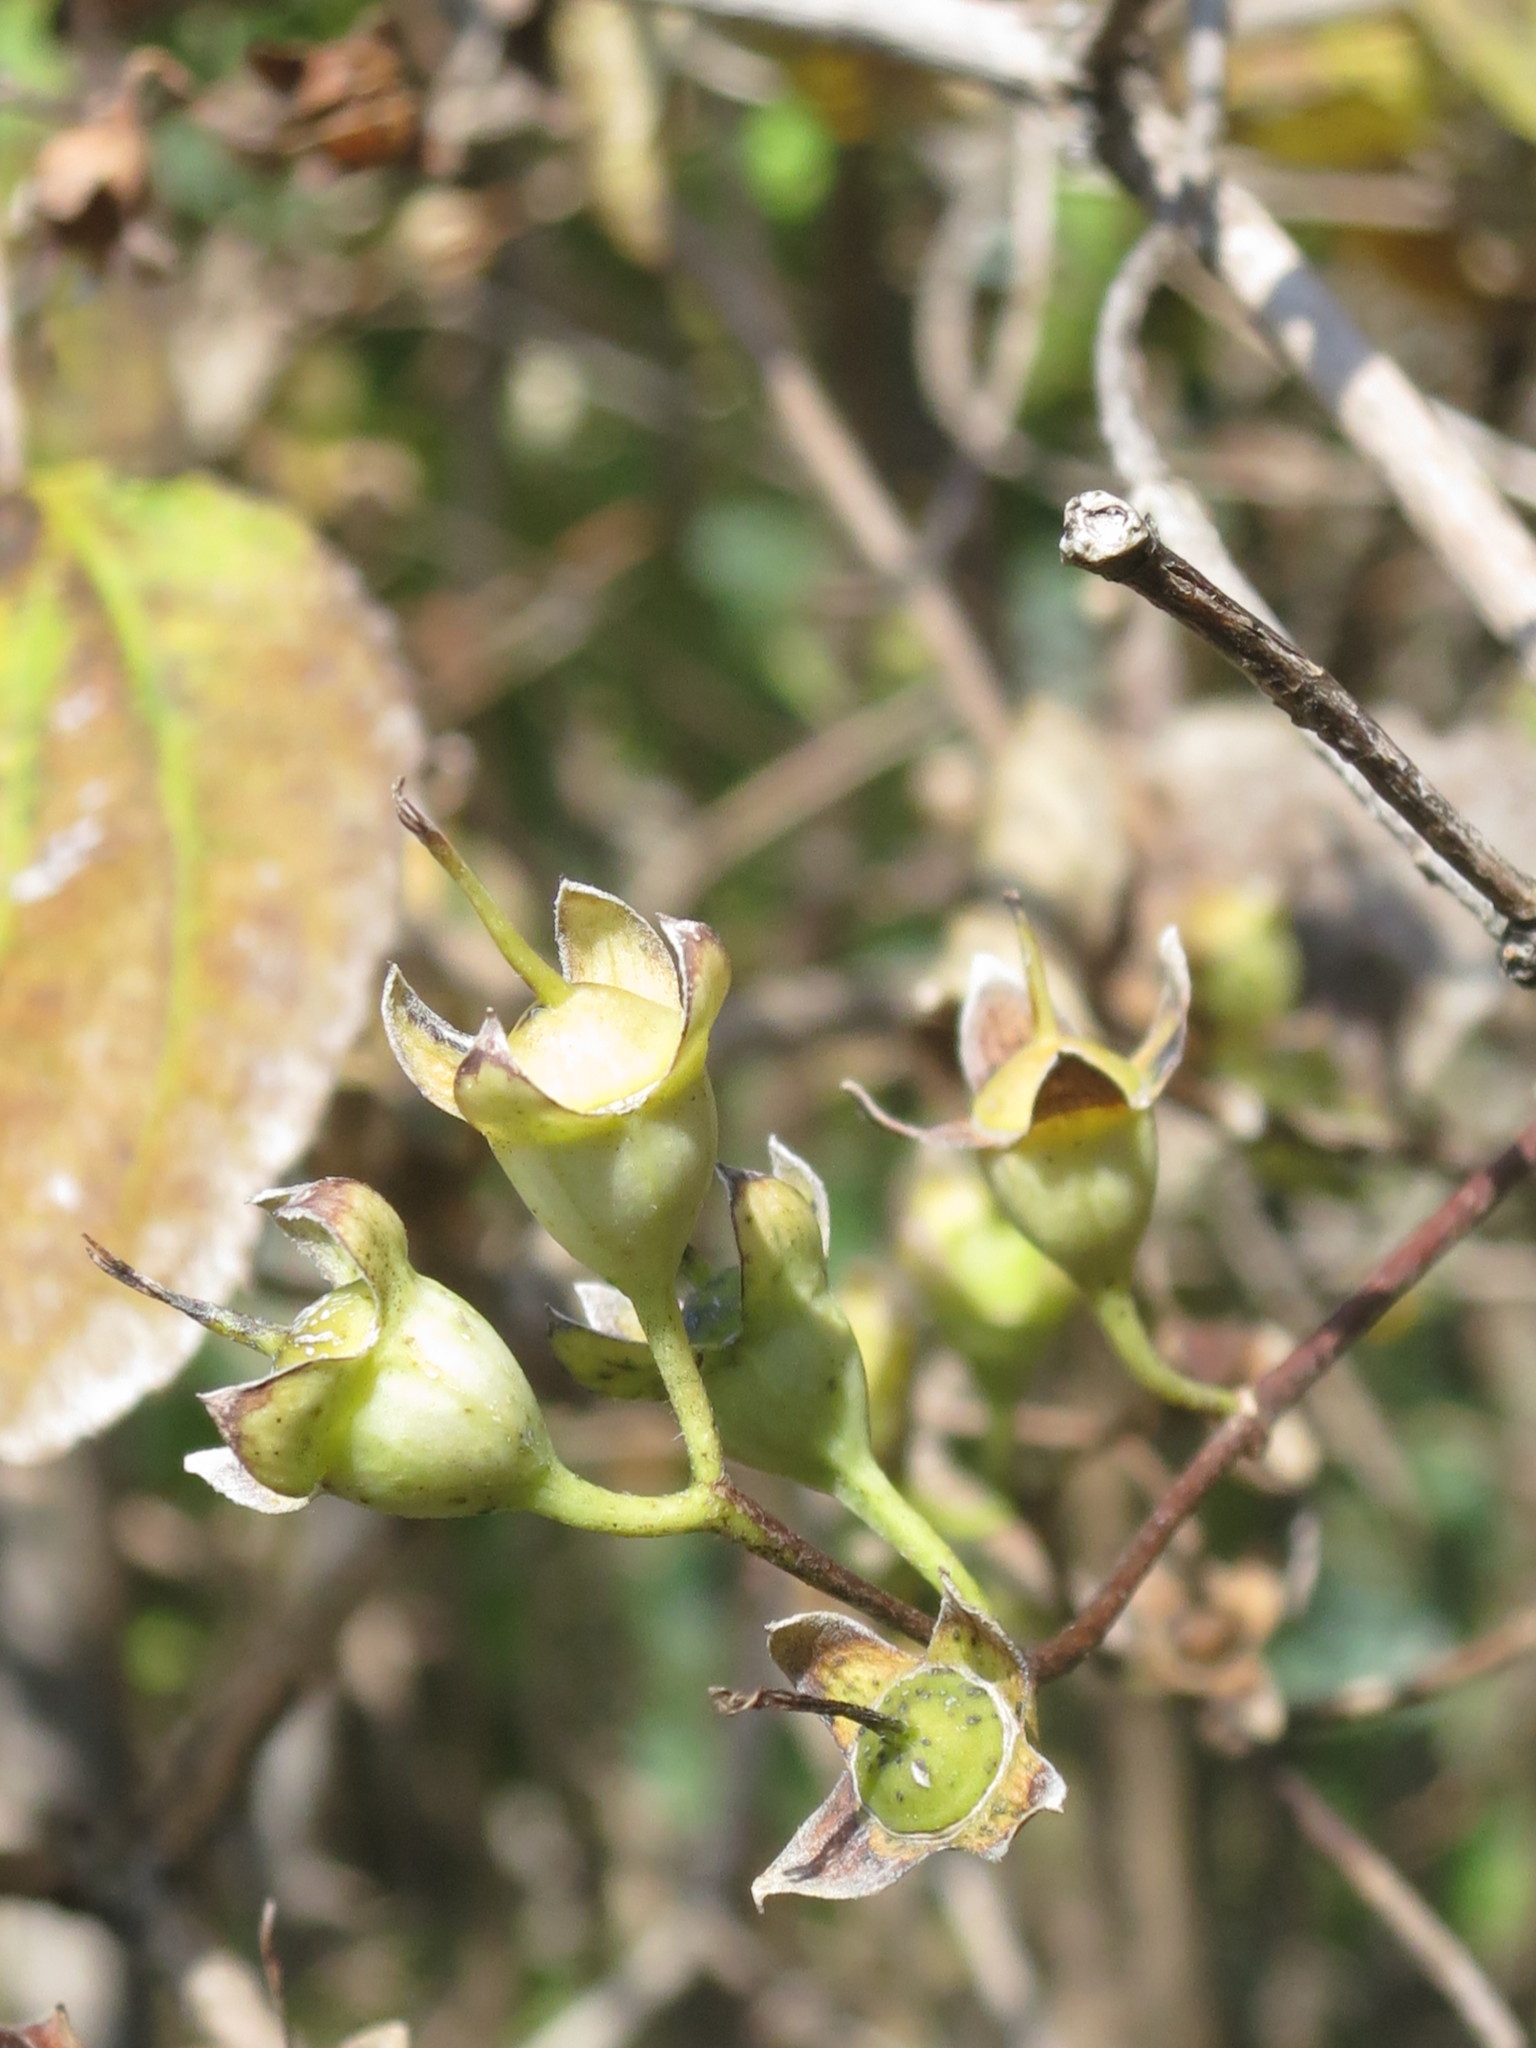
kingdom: Plantae
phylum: Tracheophyta
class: Magnoliopsida
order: Cornales
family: Hydrangeaceae
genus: Philadelphus
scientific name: Philadelphus tenuifolius
